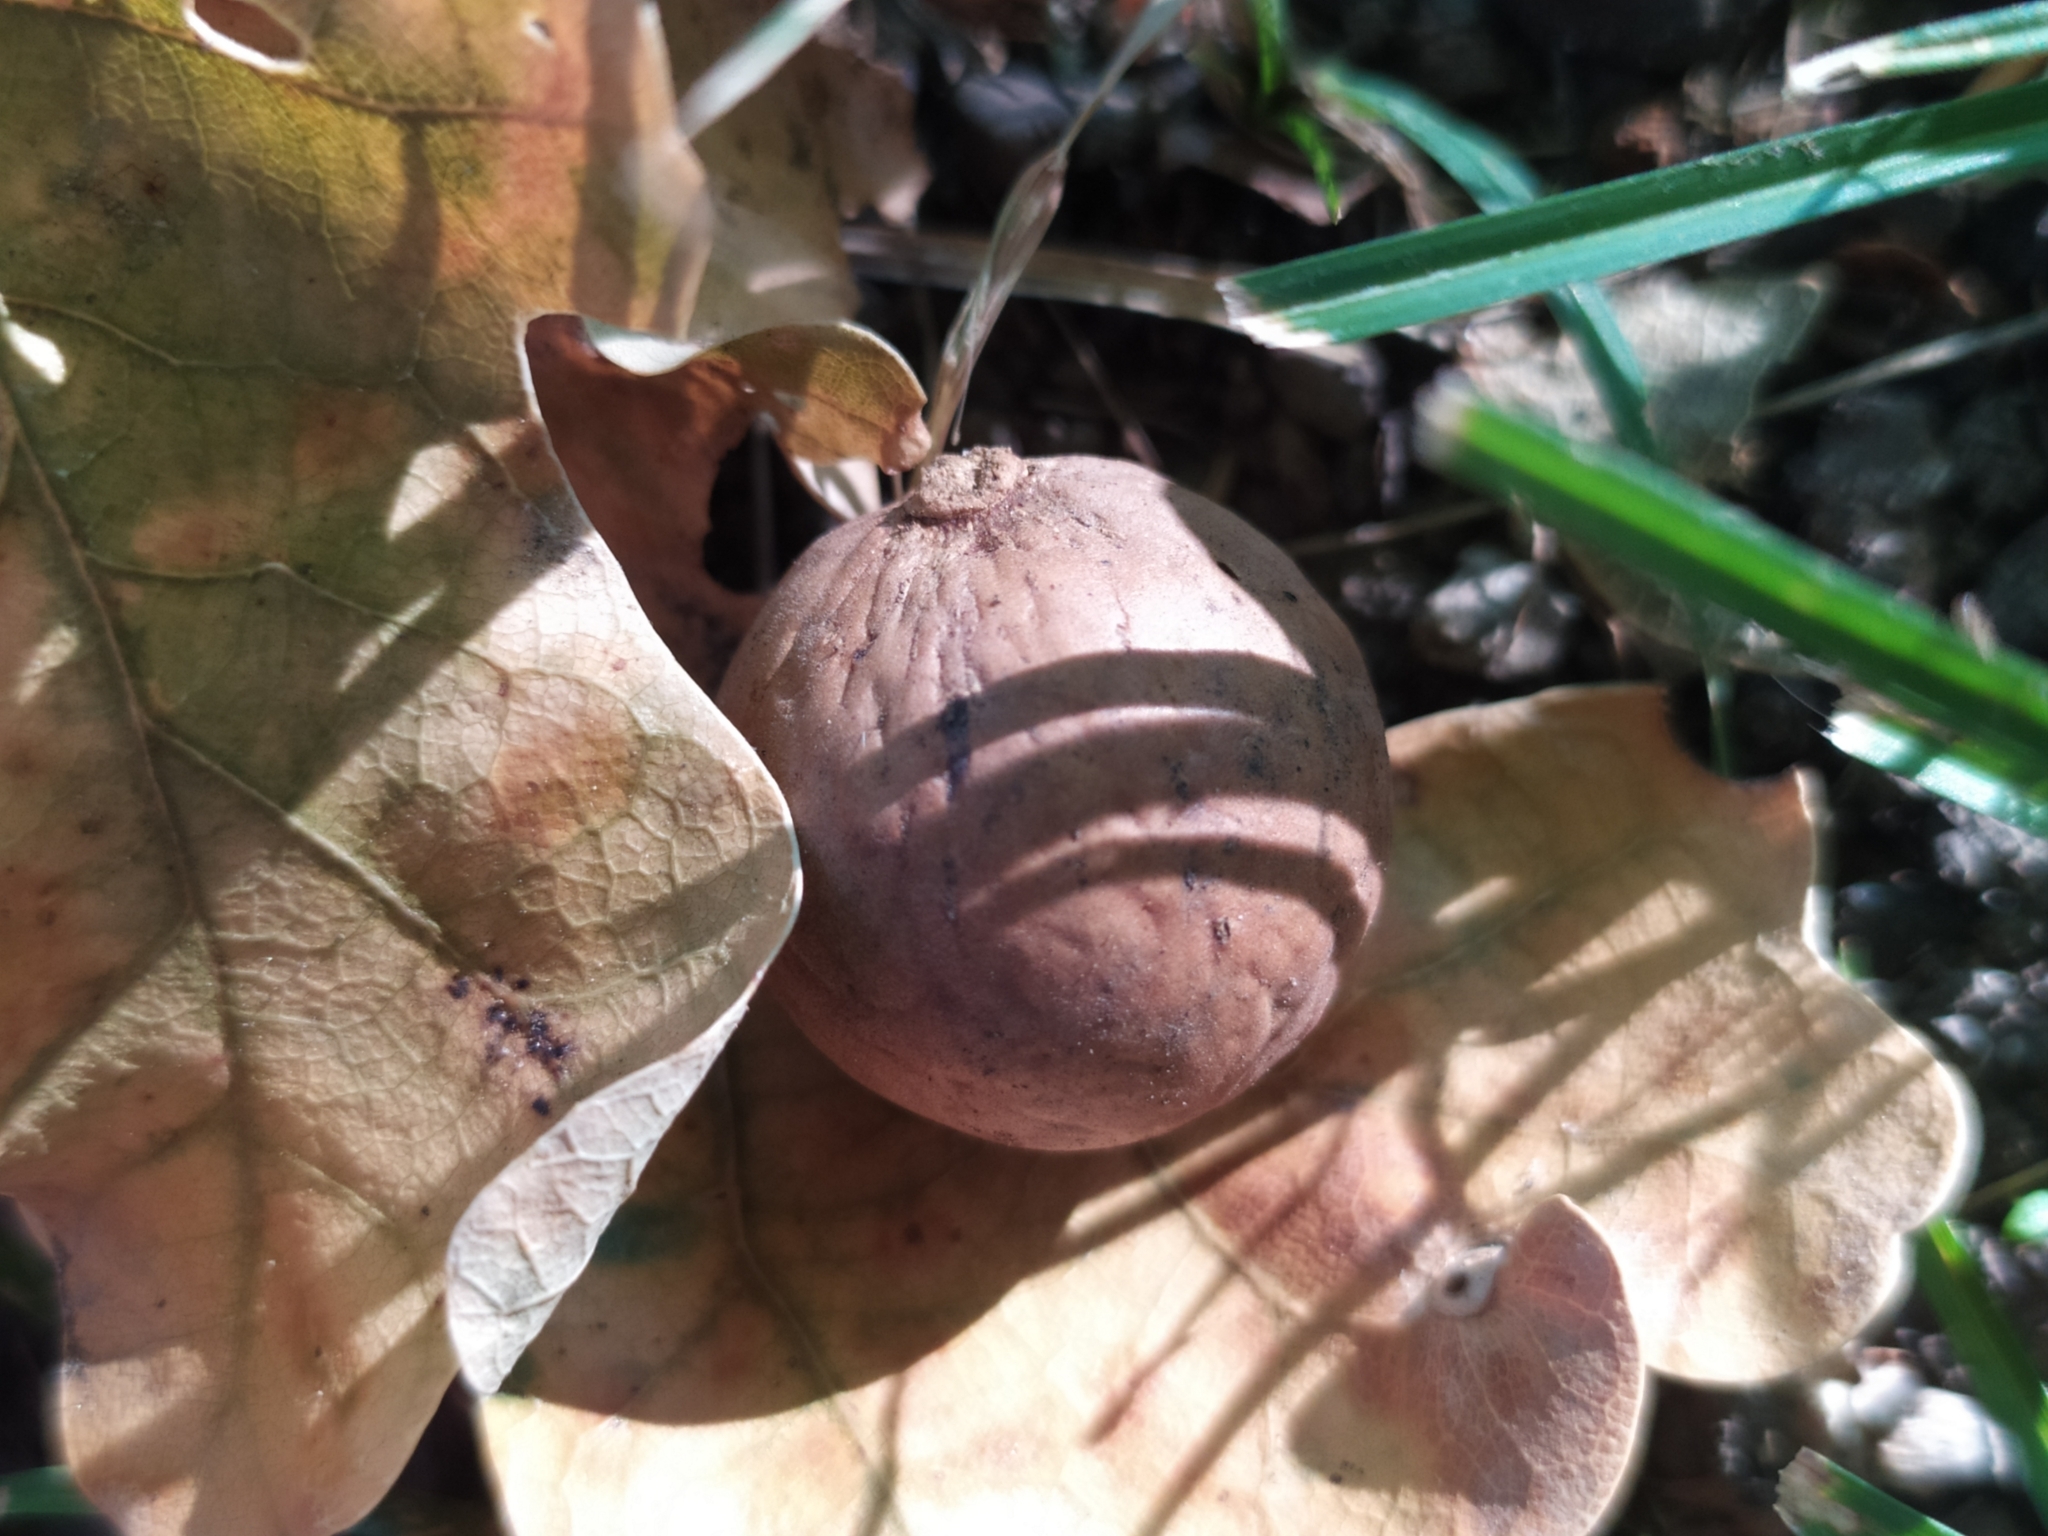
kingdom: Animalia
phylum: Arthropoda
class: Insecta
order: Hymenoptera
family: Cynipidae
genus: Andricus
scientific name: Andricus kollari
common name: Marble gall
